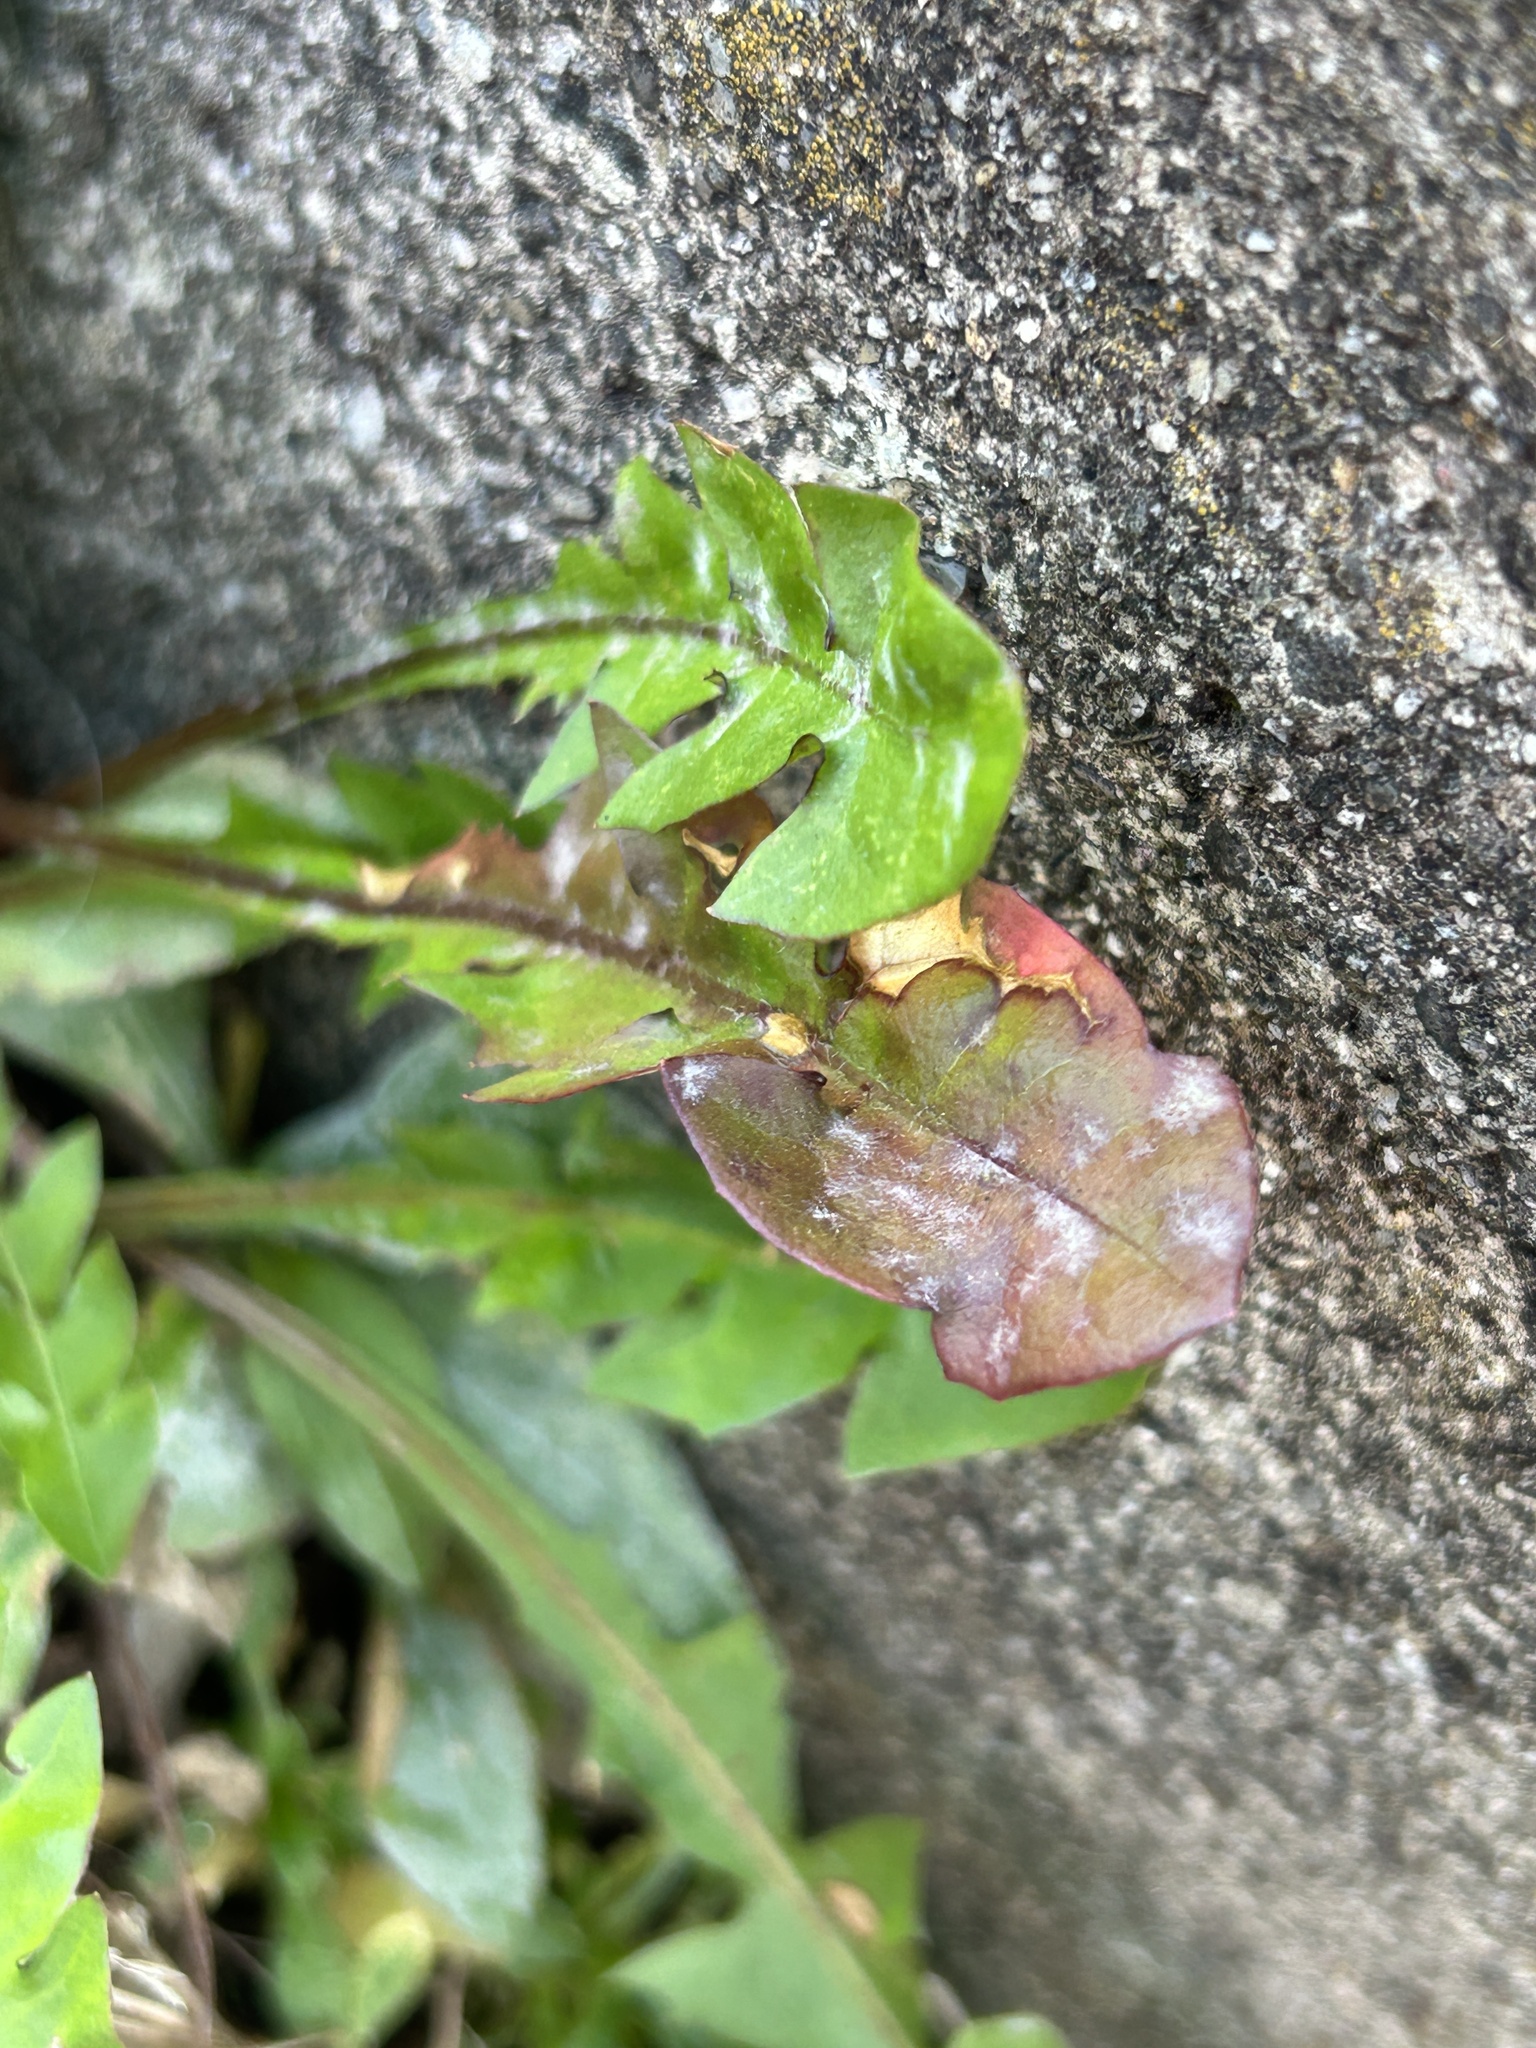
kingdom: Fungi
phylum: Ascomycota
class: Leotiomycetes
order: Helotiales
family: Erysiphaceae
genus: Podosphaera
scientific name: Podosphaera erigerontis-canadensis
